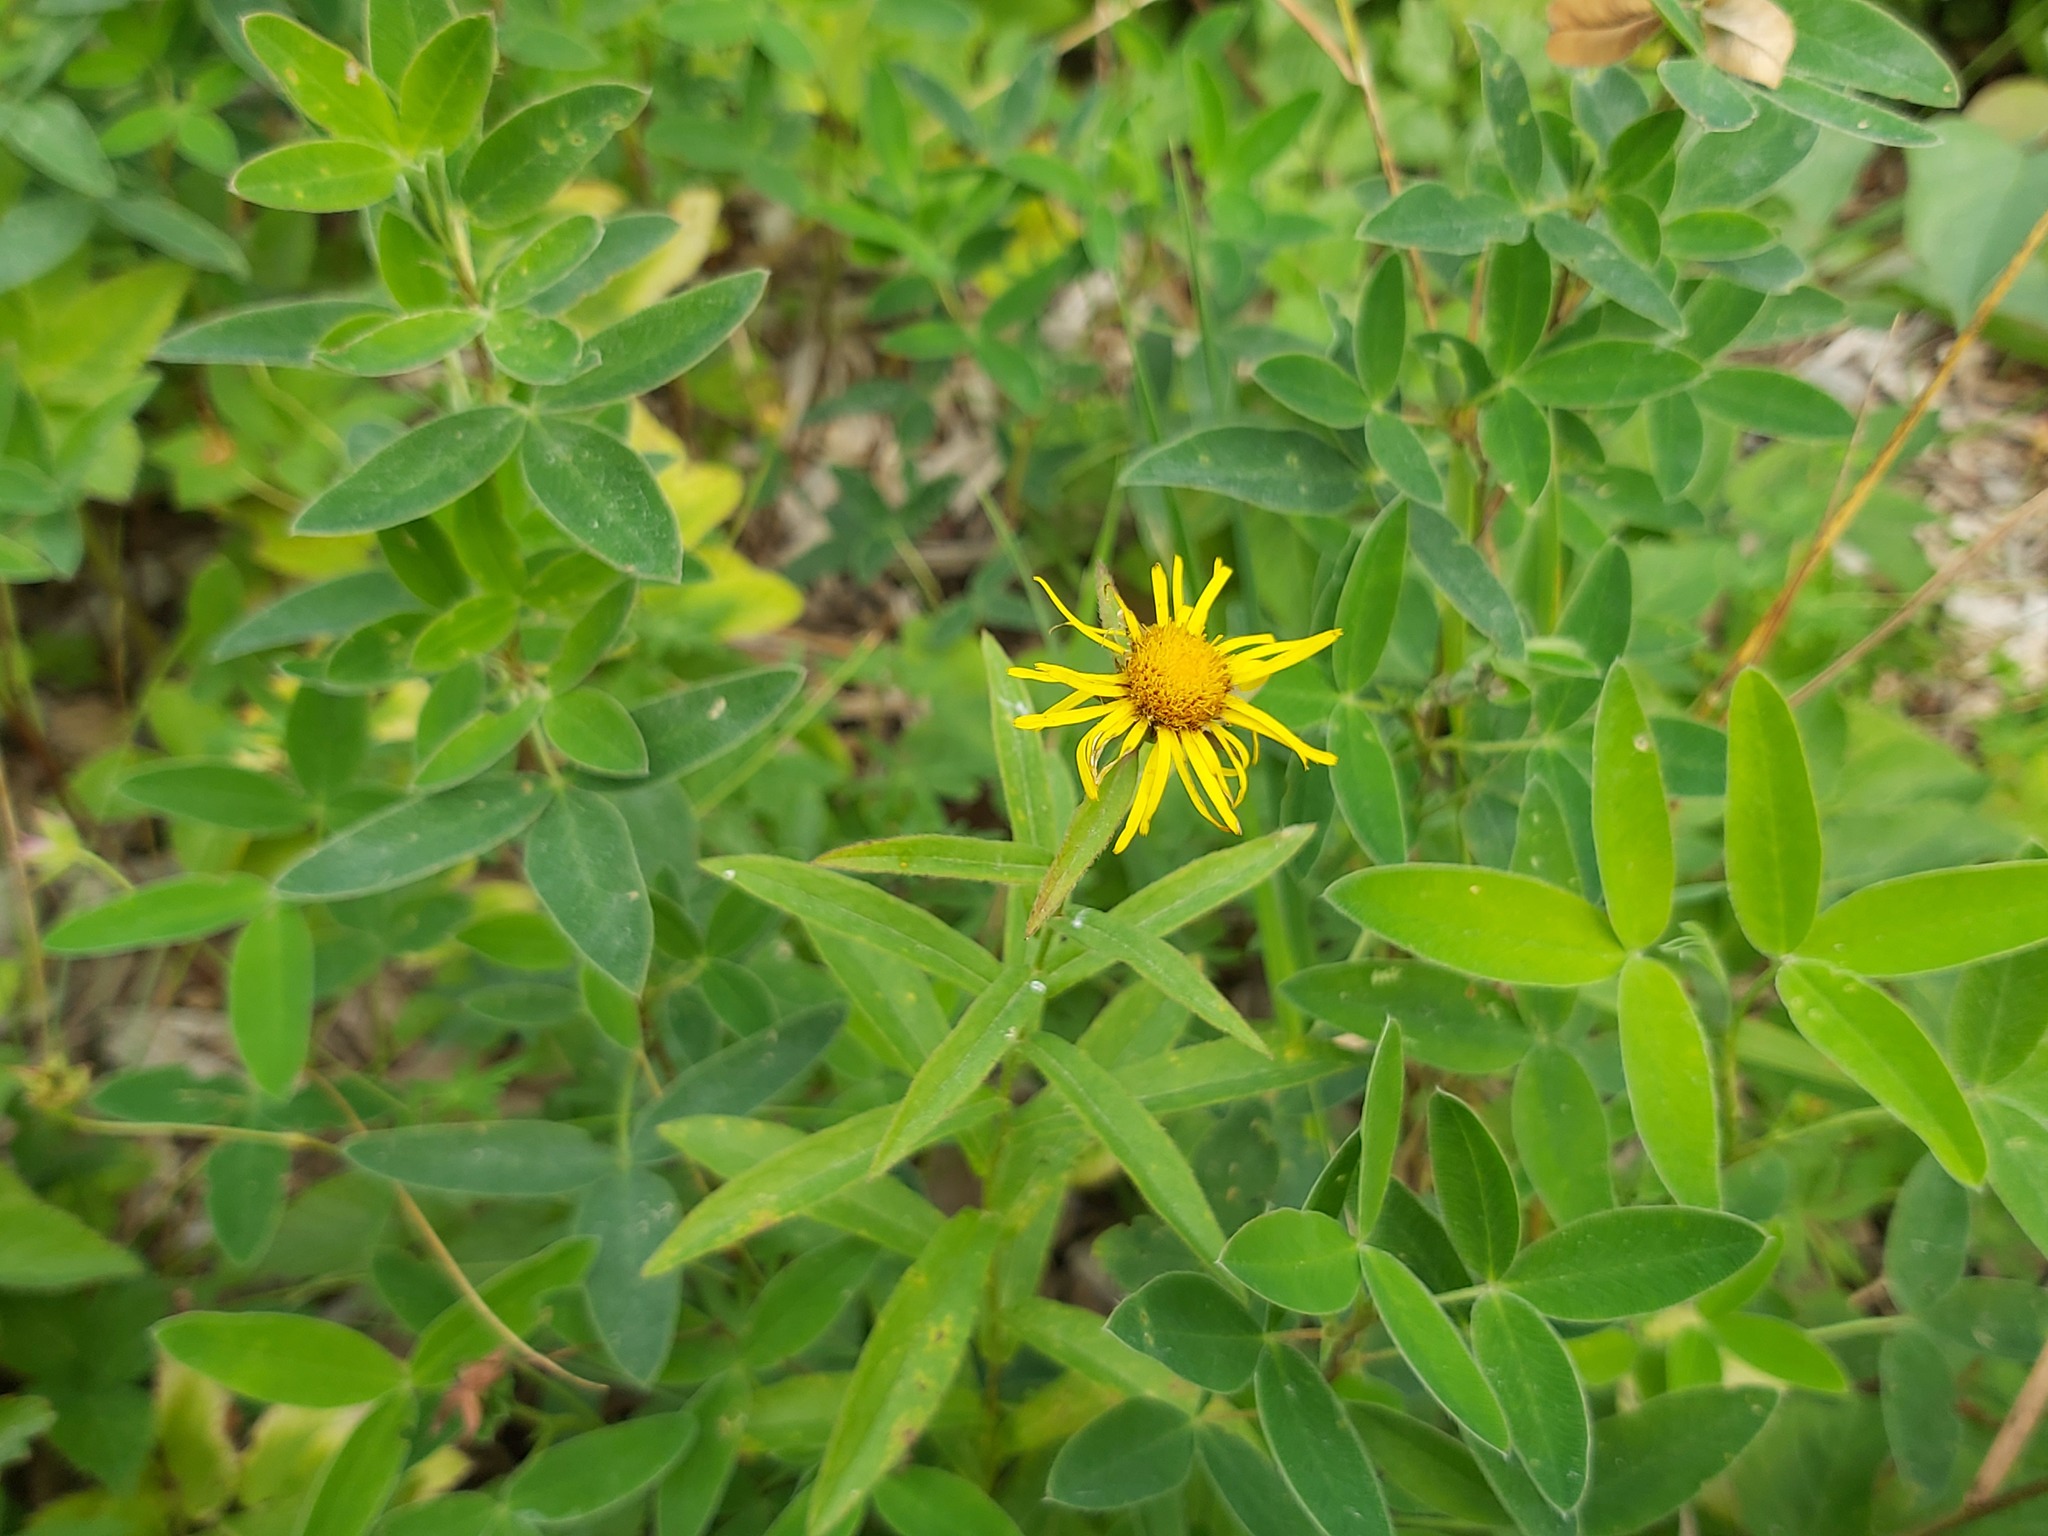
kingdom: Plantae
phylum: Tracheophyta
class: Magnoliopsida
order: Asterales
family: Asteraceae
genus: Pentanema
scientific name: Pentanema salicinum
